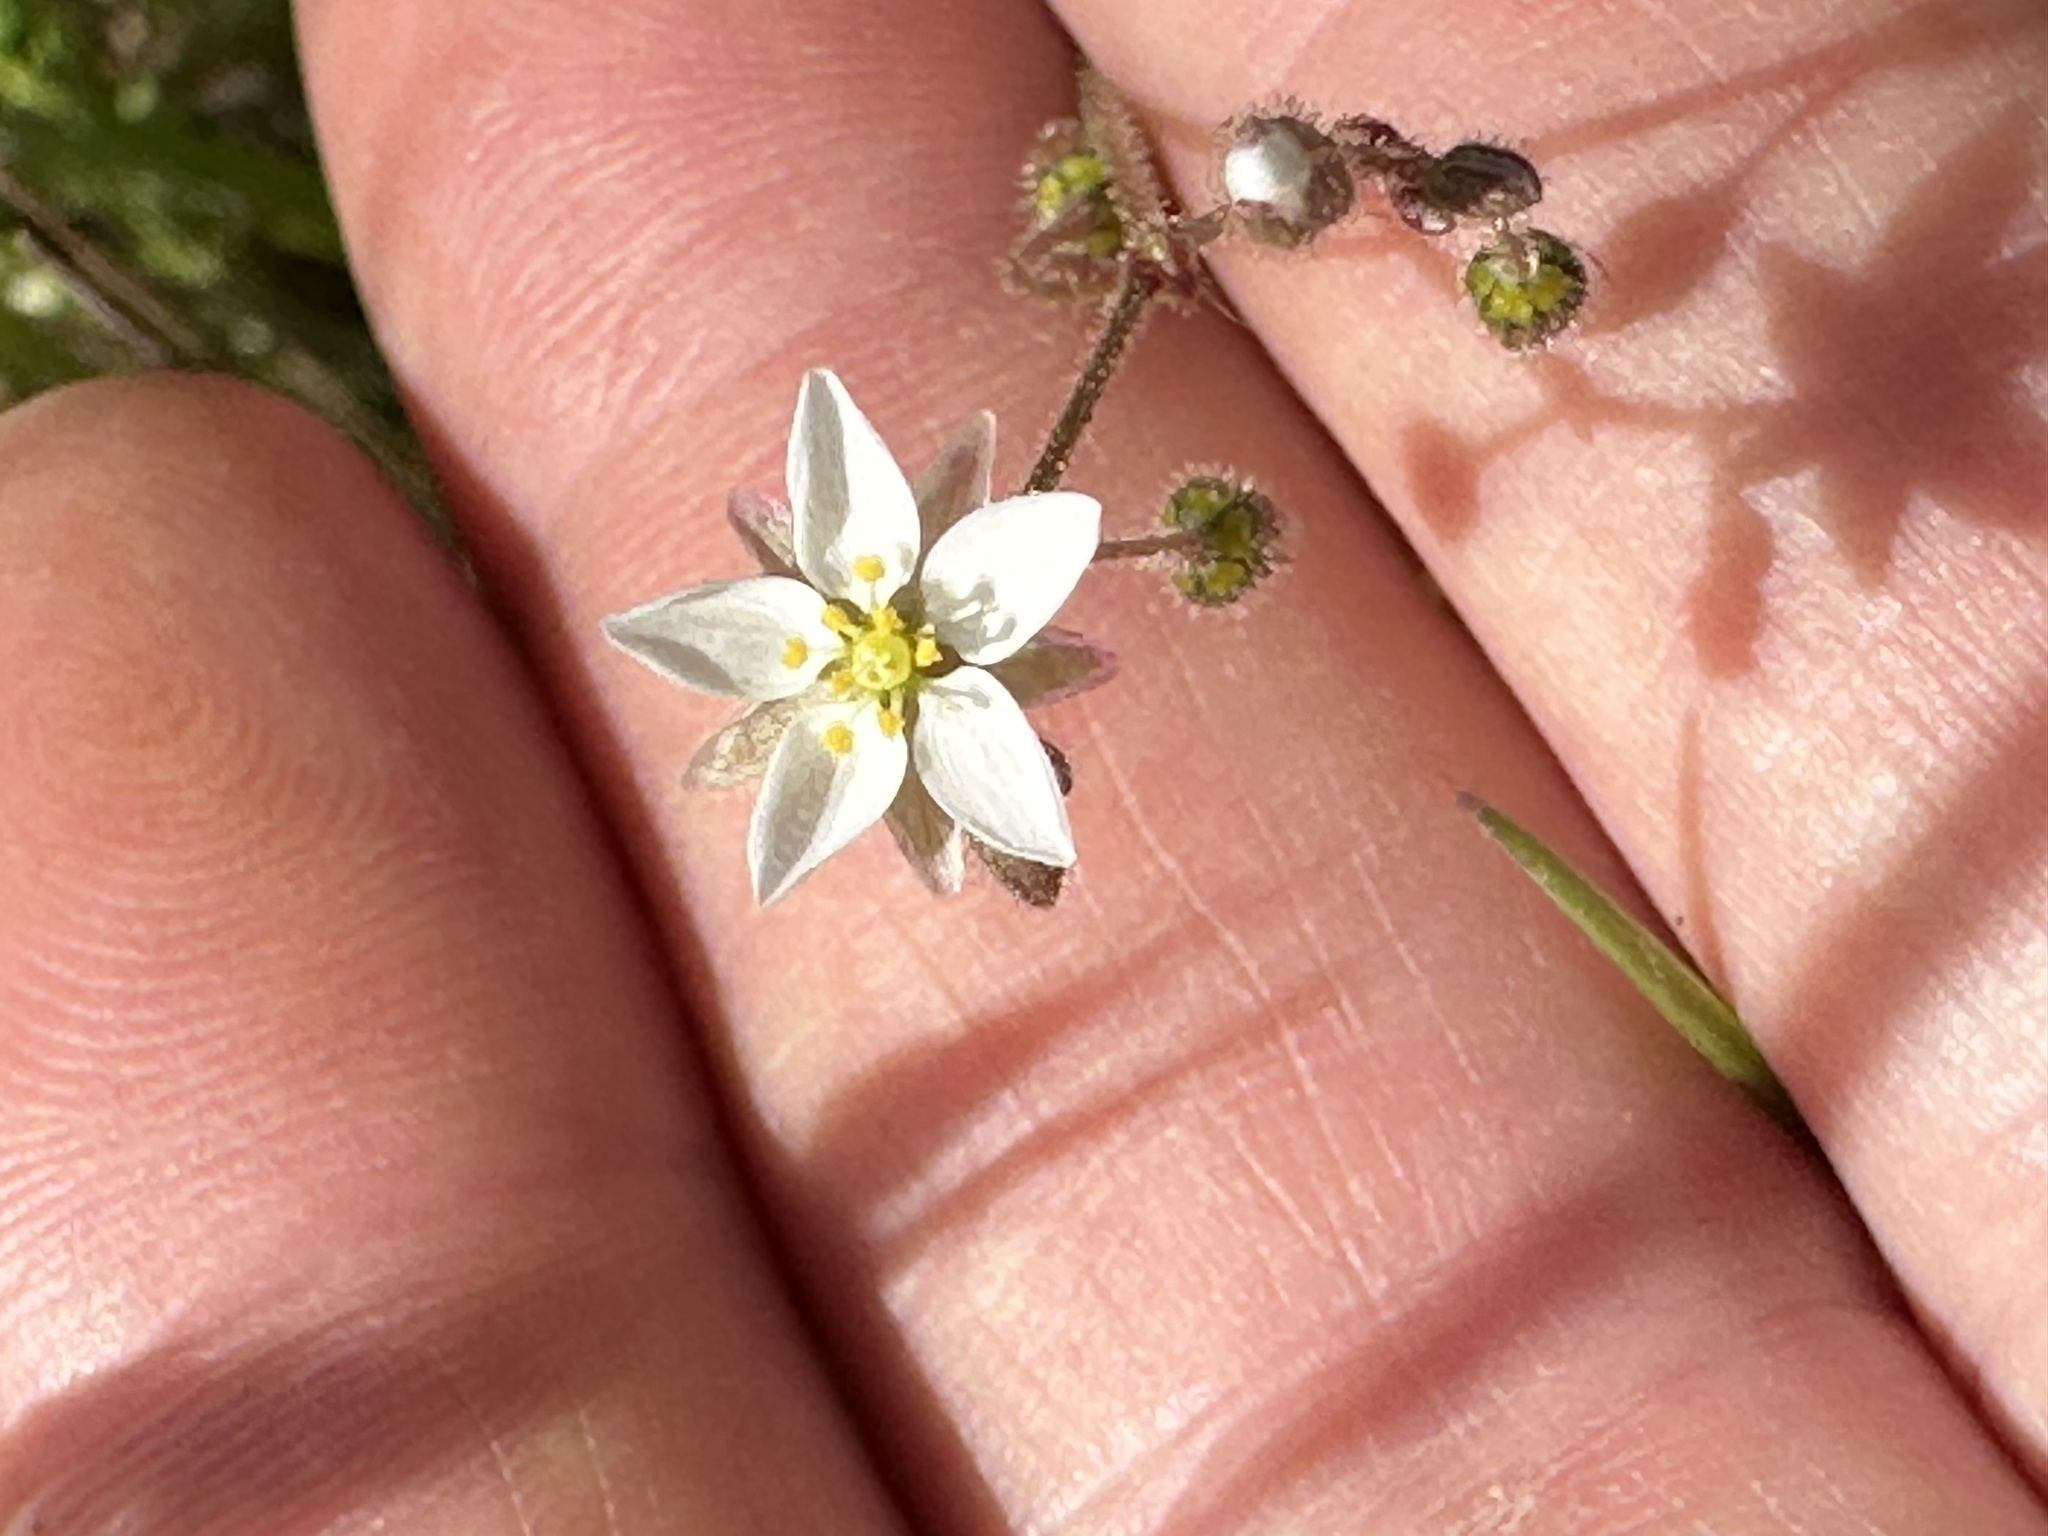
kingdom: Plantae
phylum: Tracheophyta
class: Magnoliopsida
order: Caryophyllales
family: Caryophyllaceae
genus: Spergula
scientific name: Spergula arvensis
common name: Corn spurrey
